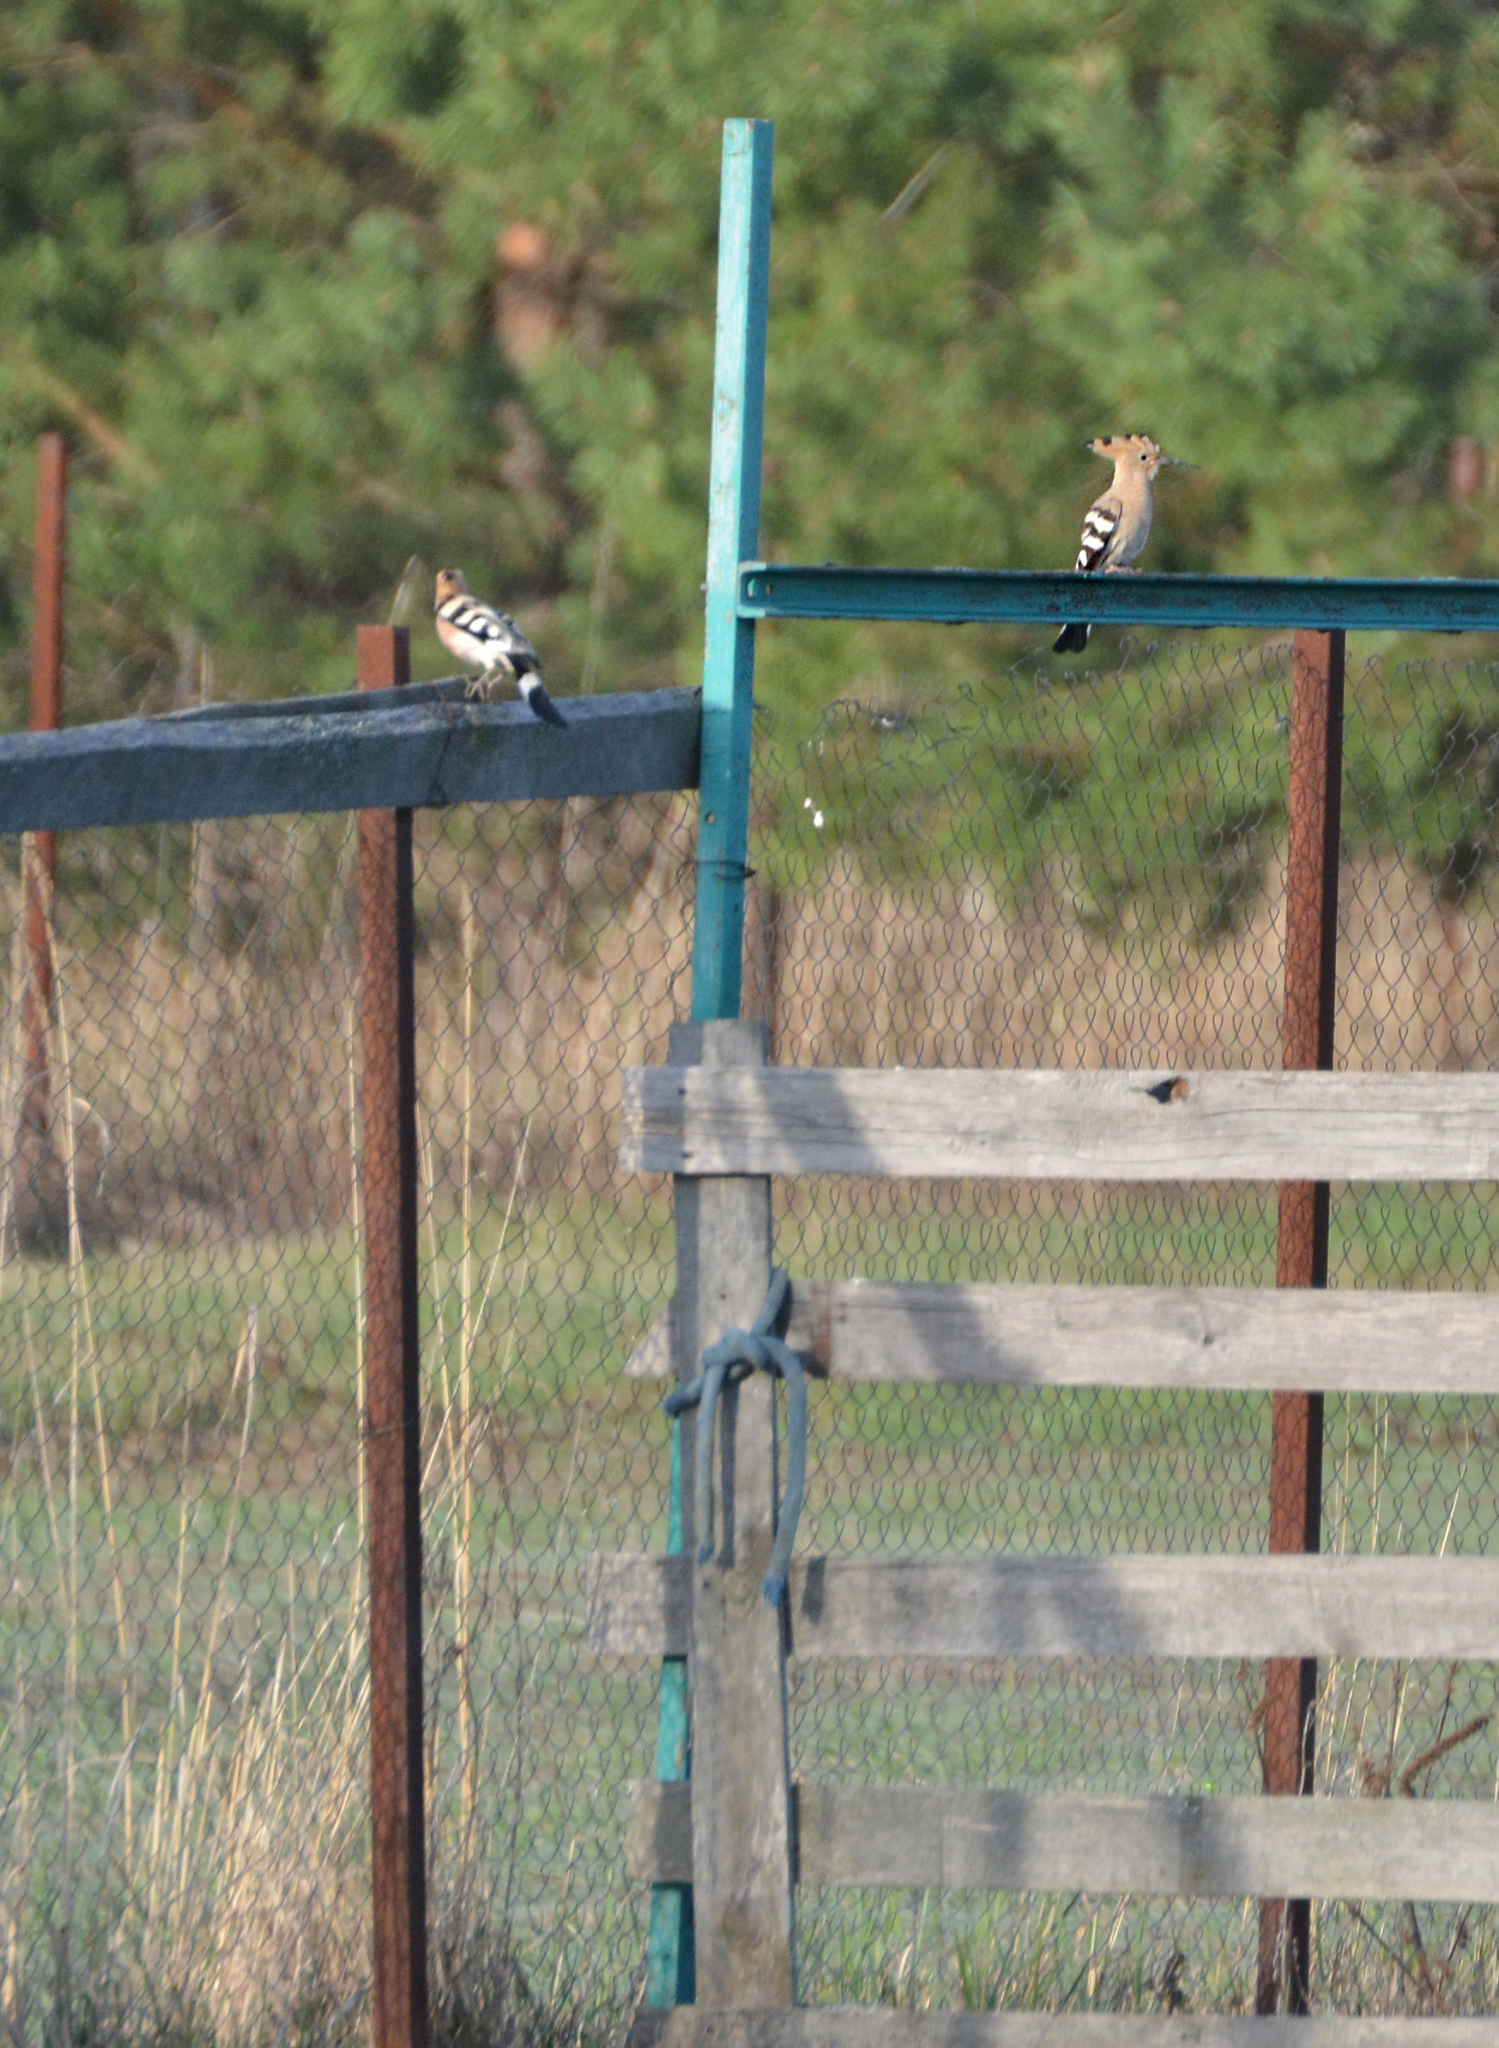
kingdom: Animalia
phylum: Chordata
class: Aves
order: Bucerotiformes
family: Upupidae
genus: Upupa
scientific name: Upupa epops
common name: Eurasian hoopoe
